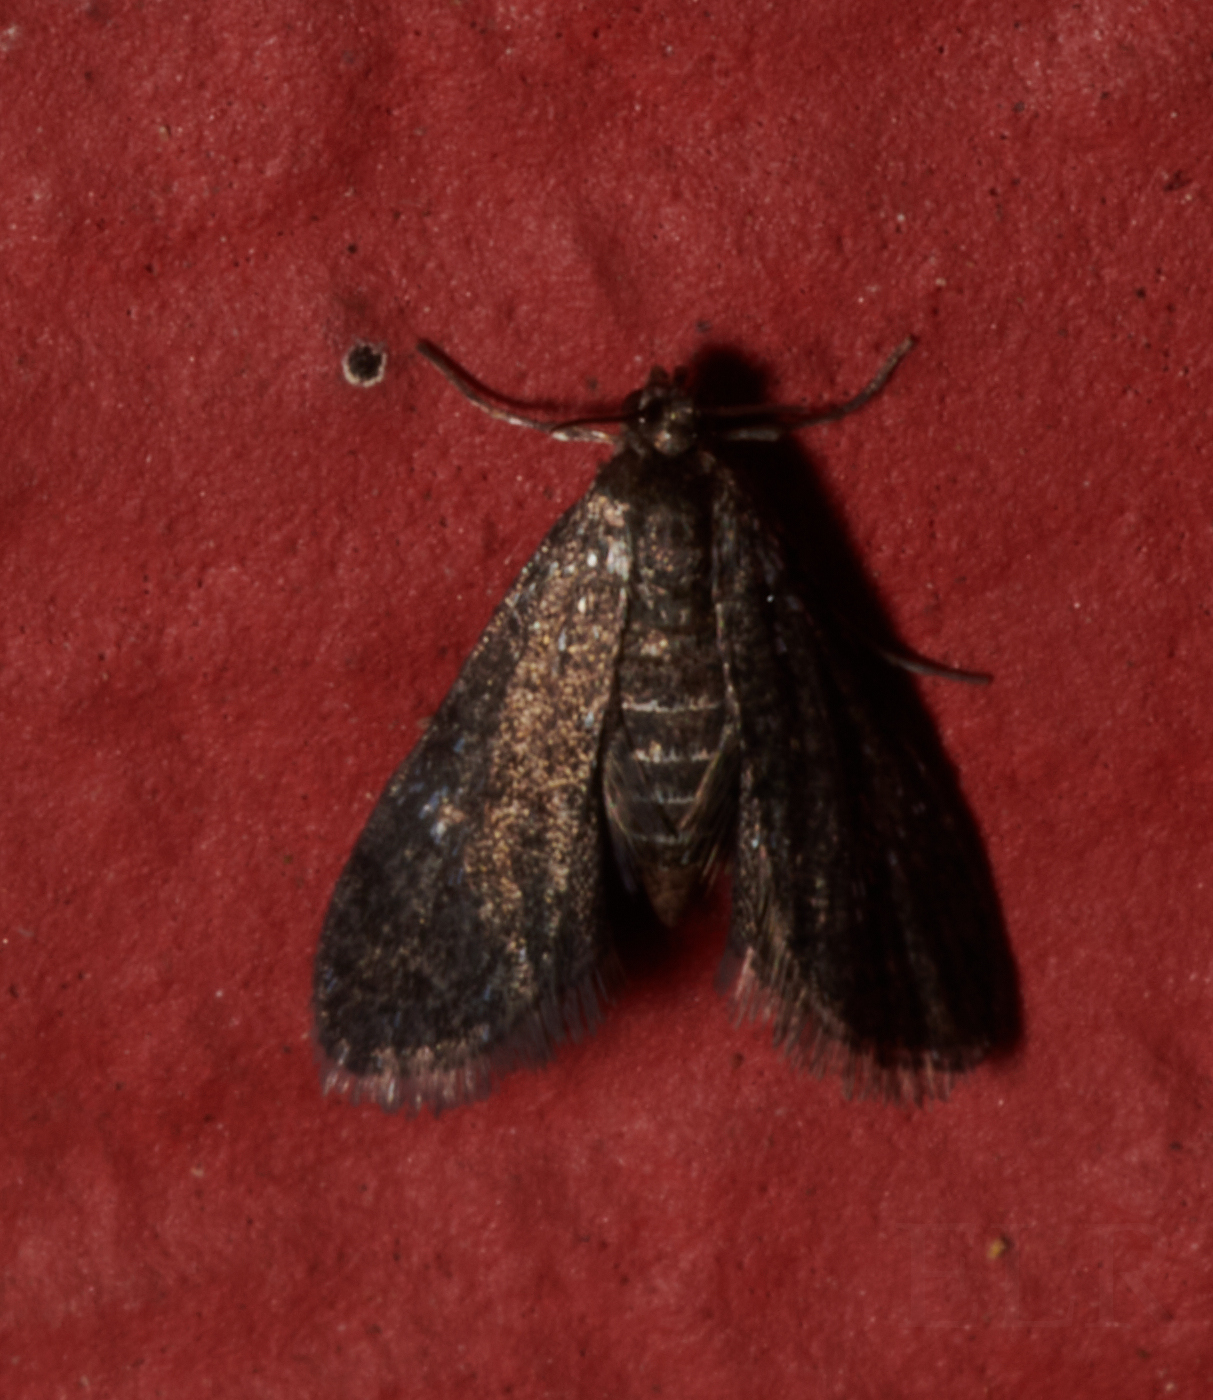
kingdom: Animalia
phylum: Arthropoda
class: Insecta
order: Lepidoptera
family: Crambidae
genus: Elophila
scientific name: Elophila tinealis
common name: Black duckweed moth
